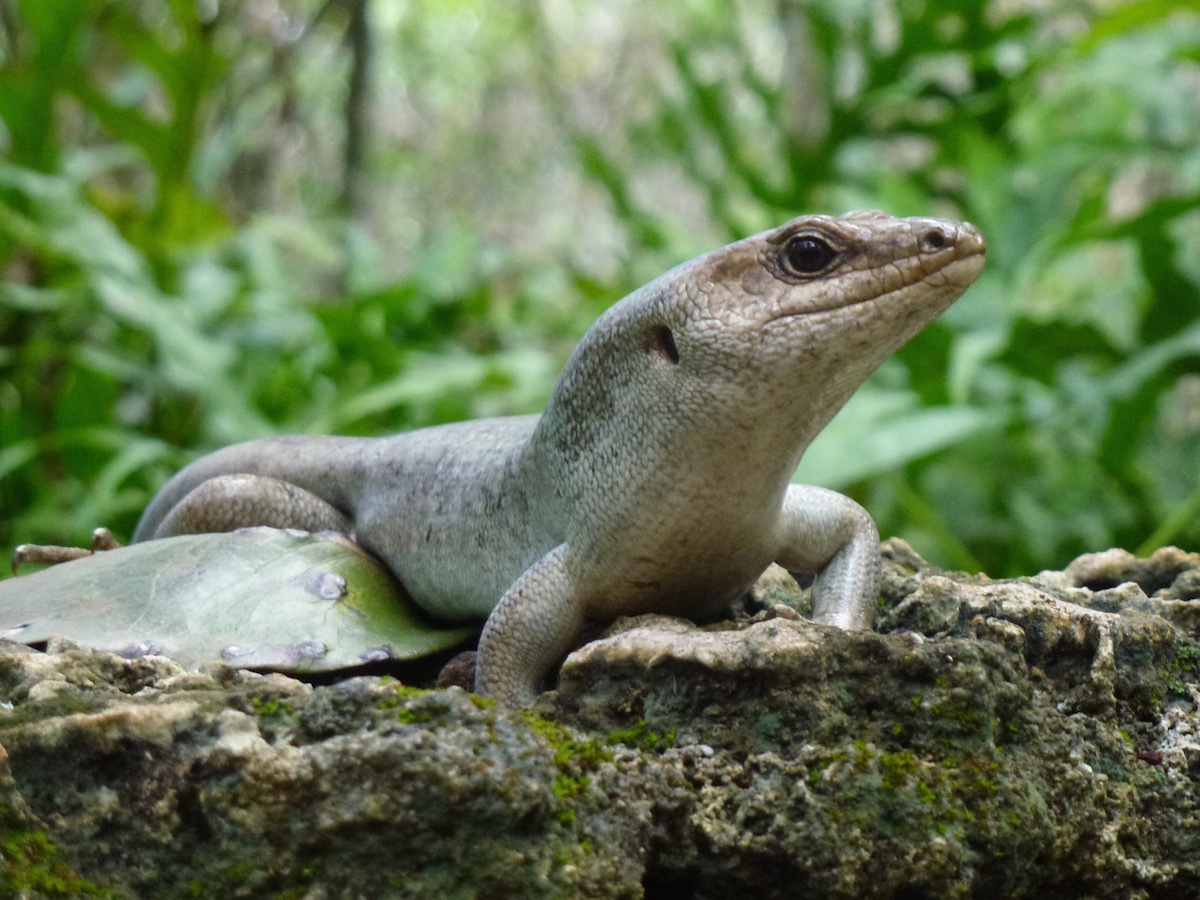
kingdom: Animalia
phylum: Chordata
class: Squamata
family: Scincidae
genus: Leiolopisma
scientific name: Leiolopisma telfairii
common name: Round island skink
